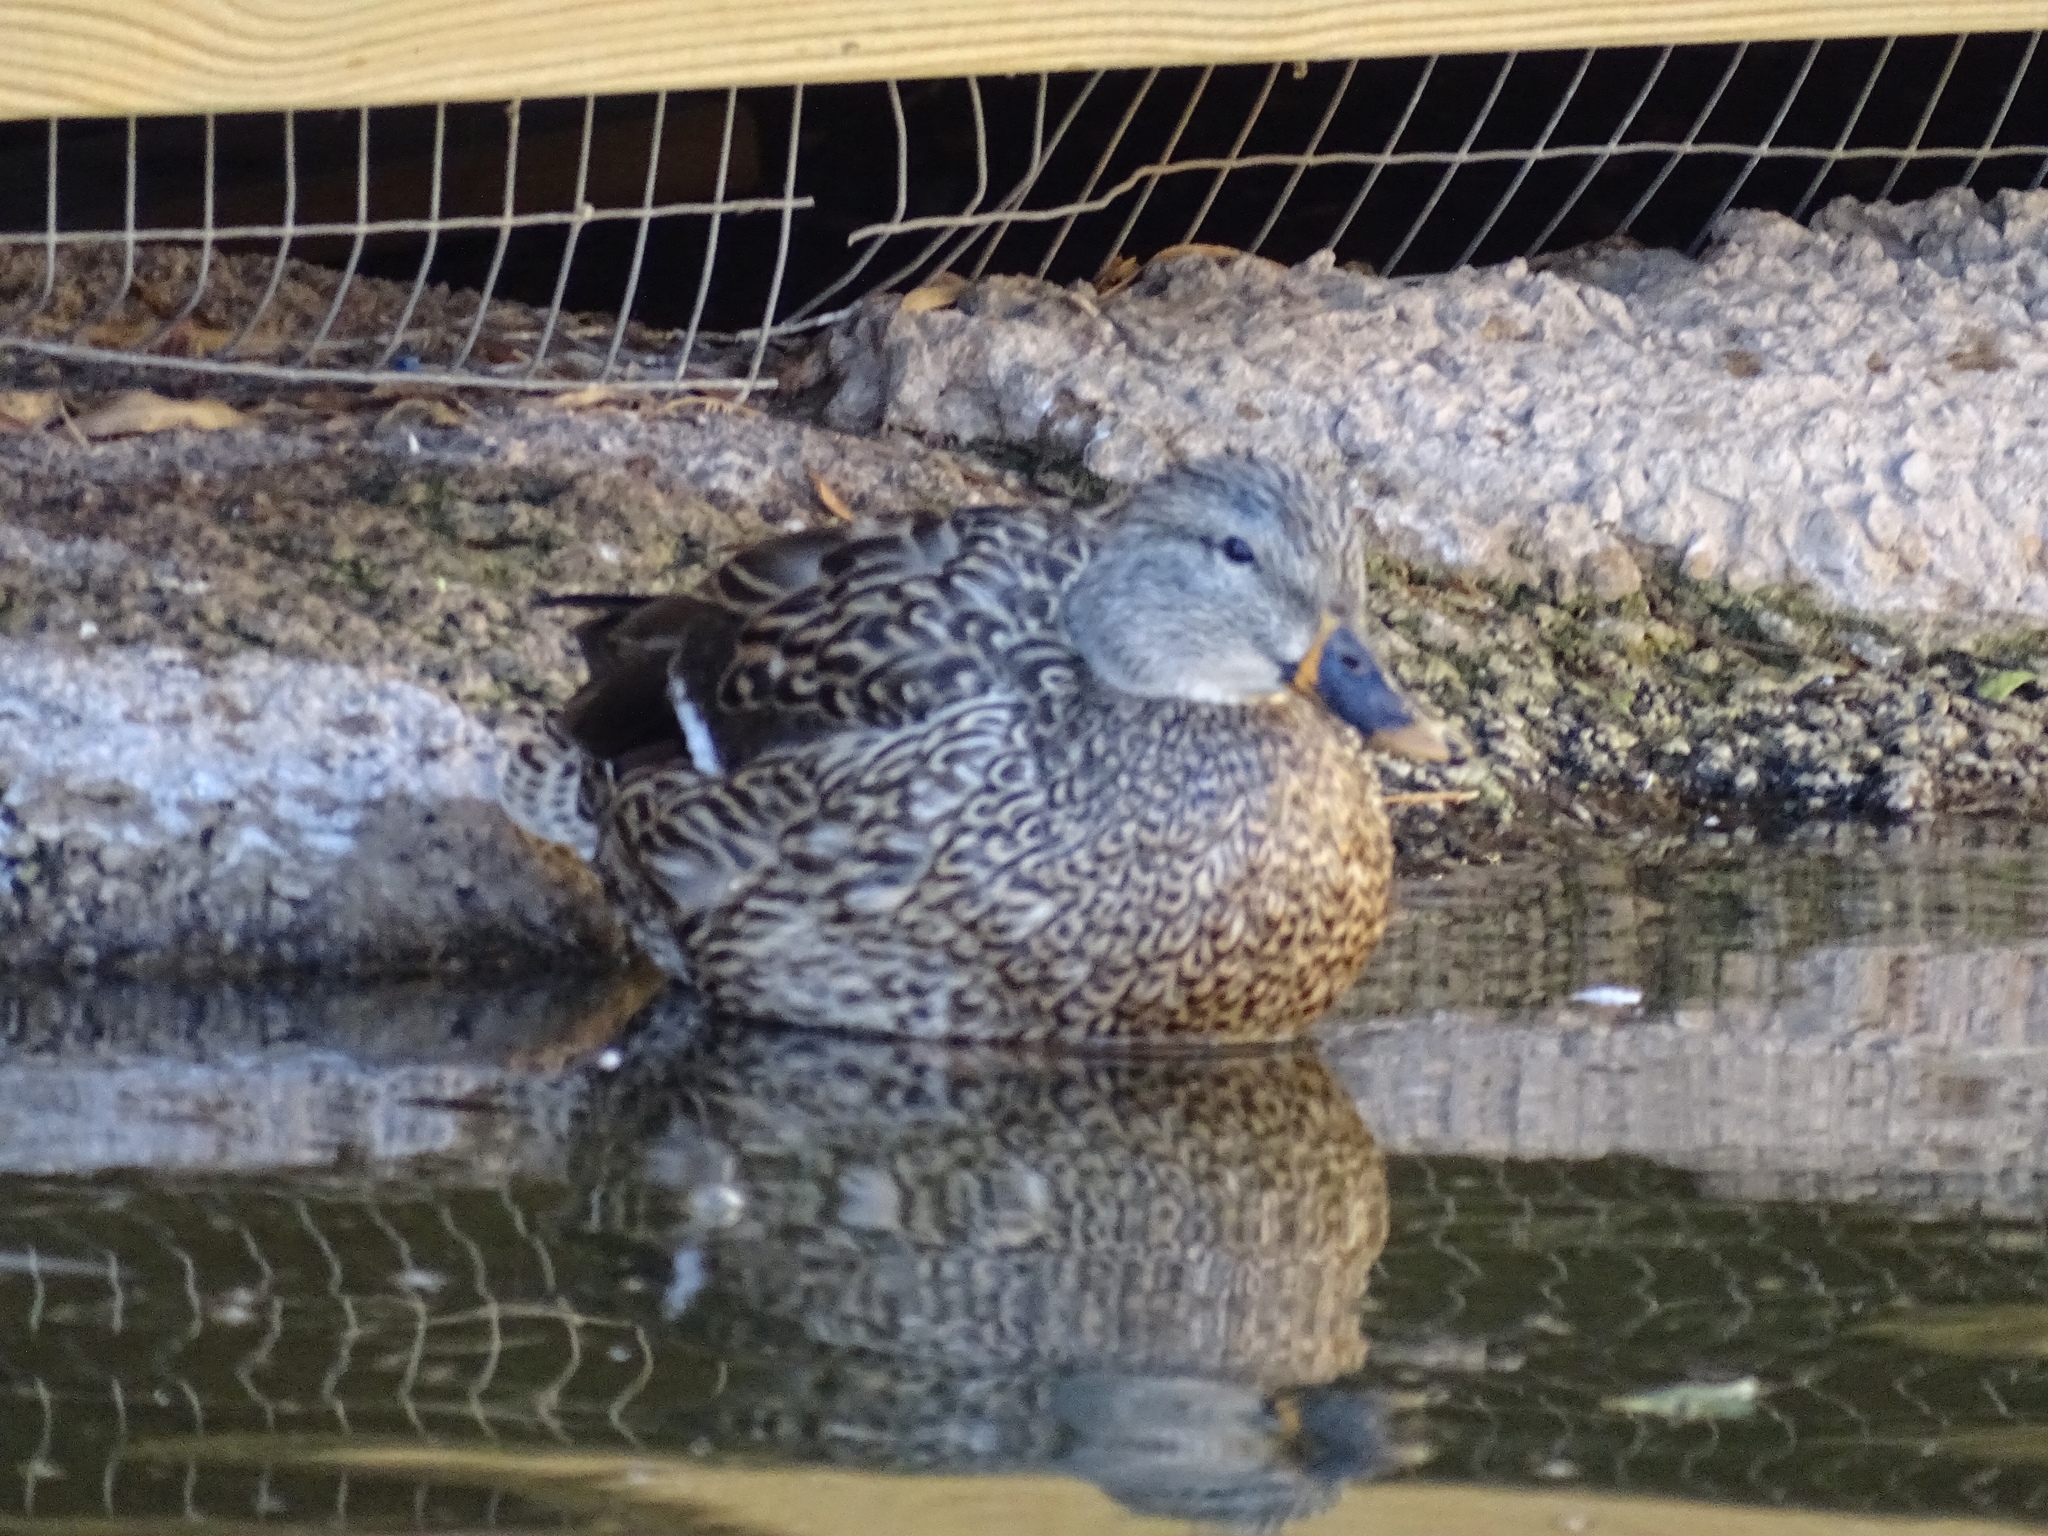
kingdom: Animalia
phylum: Chordata
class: Aves
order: Anseriformes
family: Anatidae
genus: Anas
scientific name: Anas platyrhynchos
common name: Mallard
